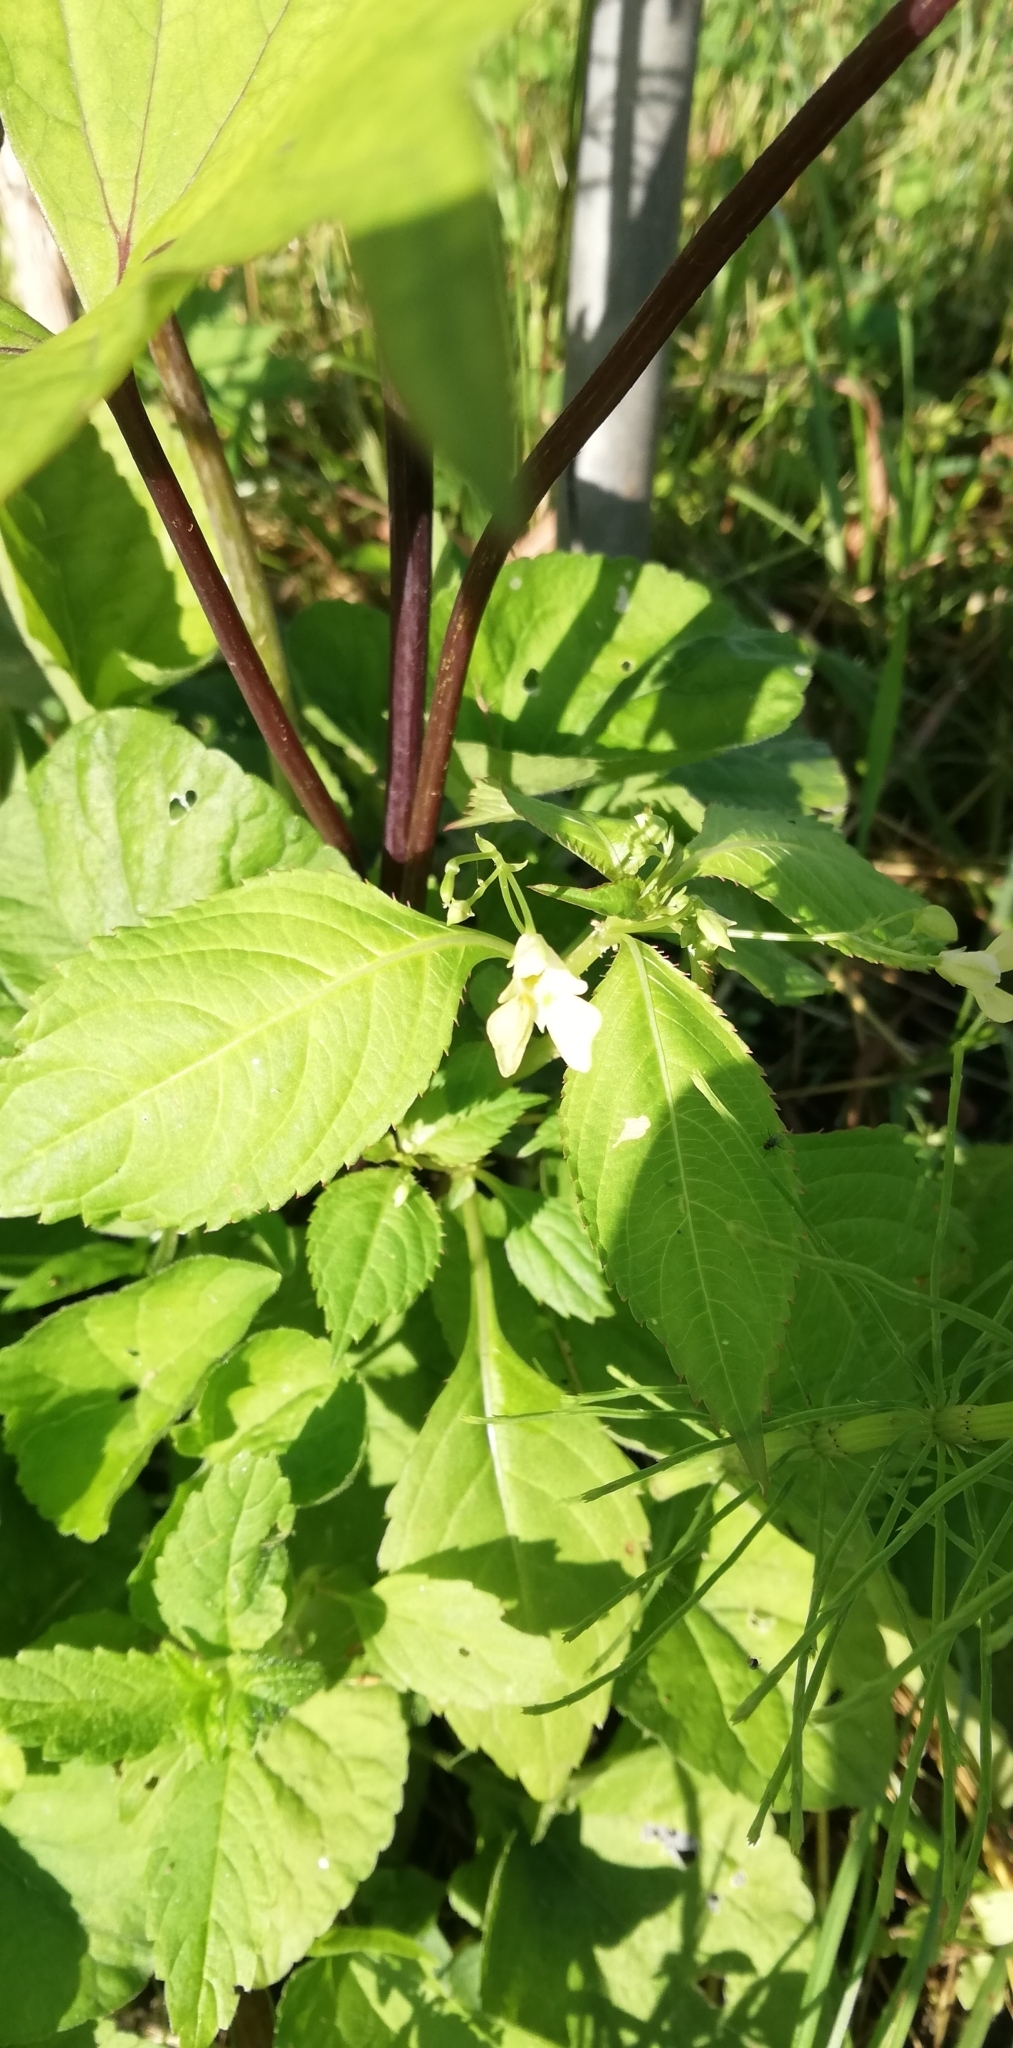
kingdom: Plantae
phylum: Tracheophyta
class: Magnoliopsida
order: Ericales
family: Balsaminaceae
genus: Impatiens
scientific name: Impatiens parviflora
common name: Small balsam
